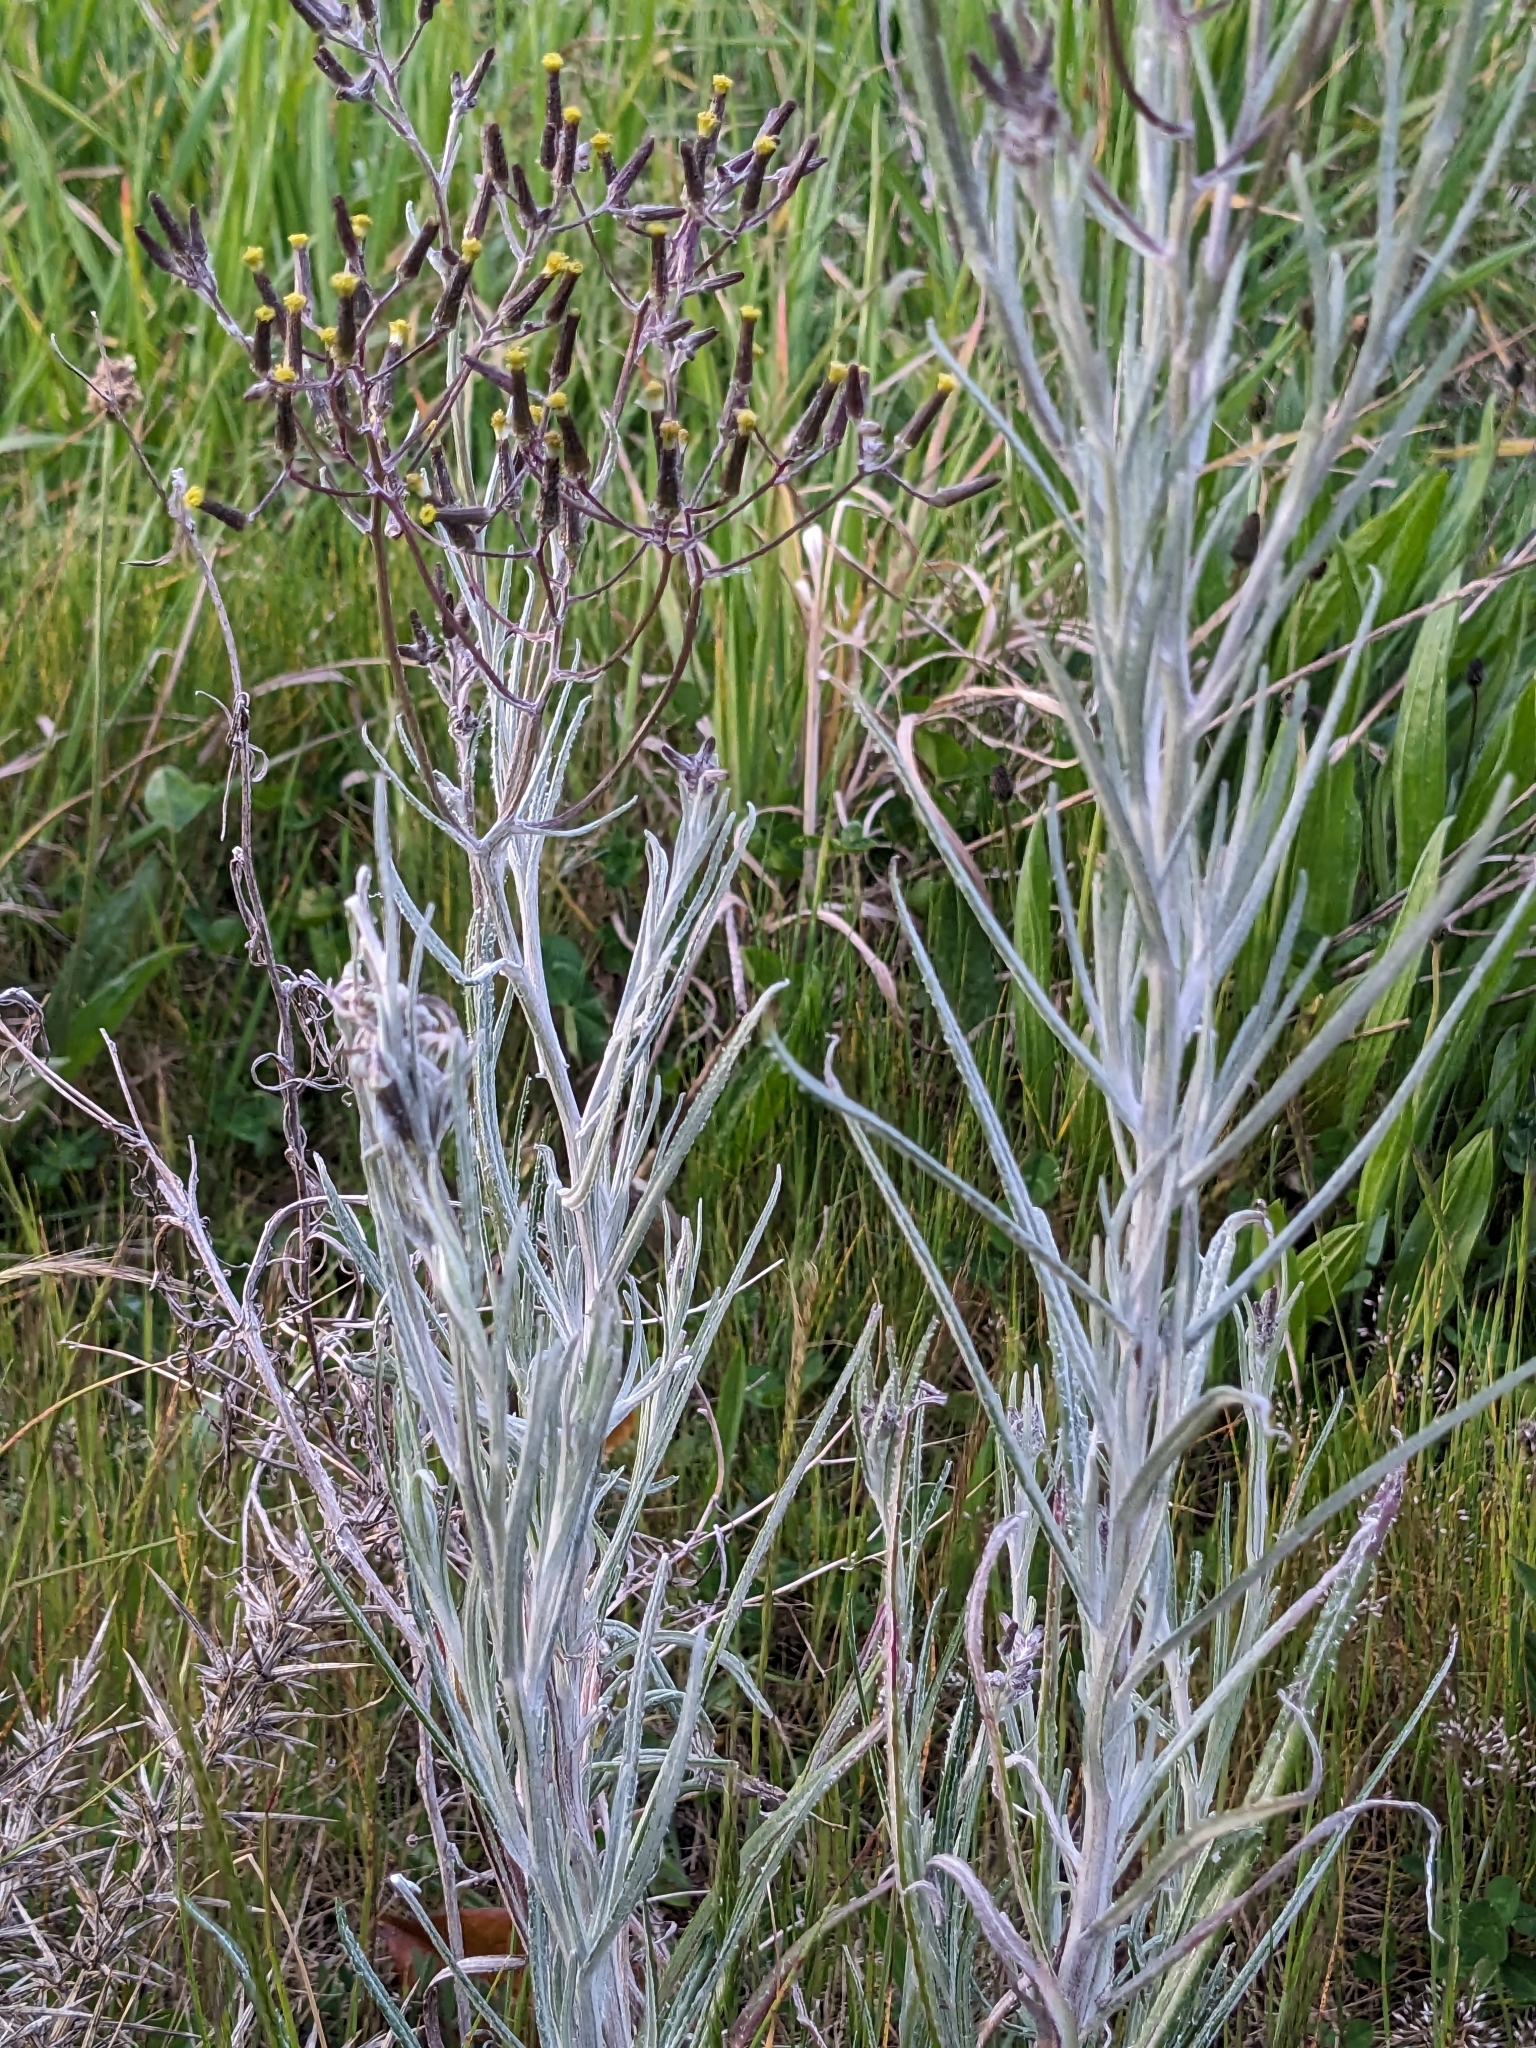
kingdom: Plantae
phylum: Tracheophyta
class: Magnoliopsida
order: Asterales
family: Asteraceae
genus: Senecio
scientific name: Senecio quadridentatus
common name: Cotton fireweed
